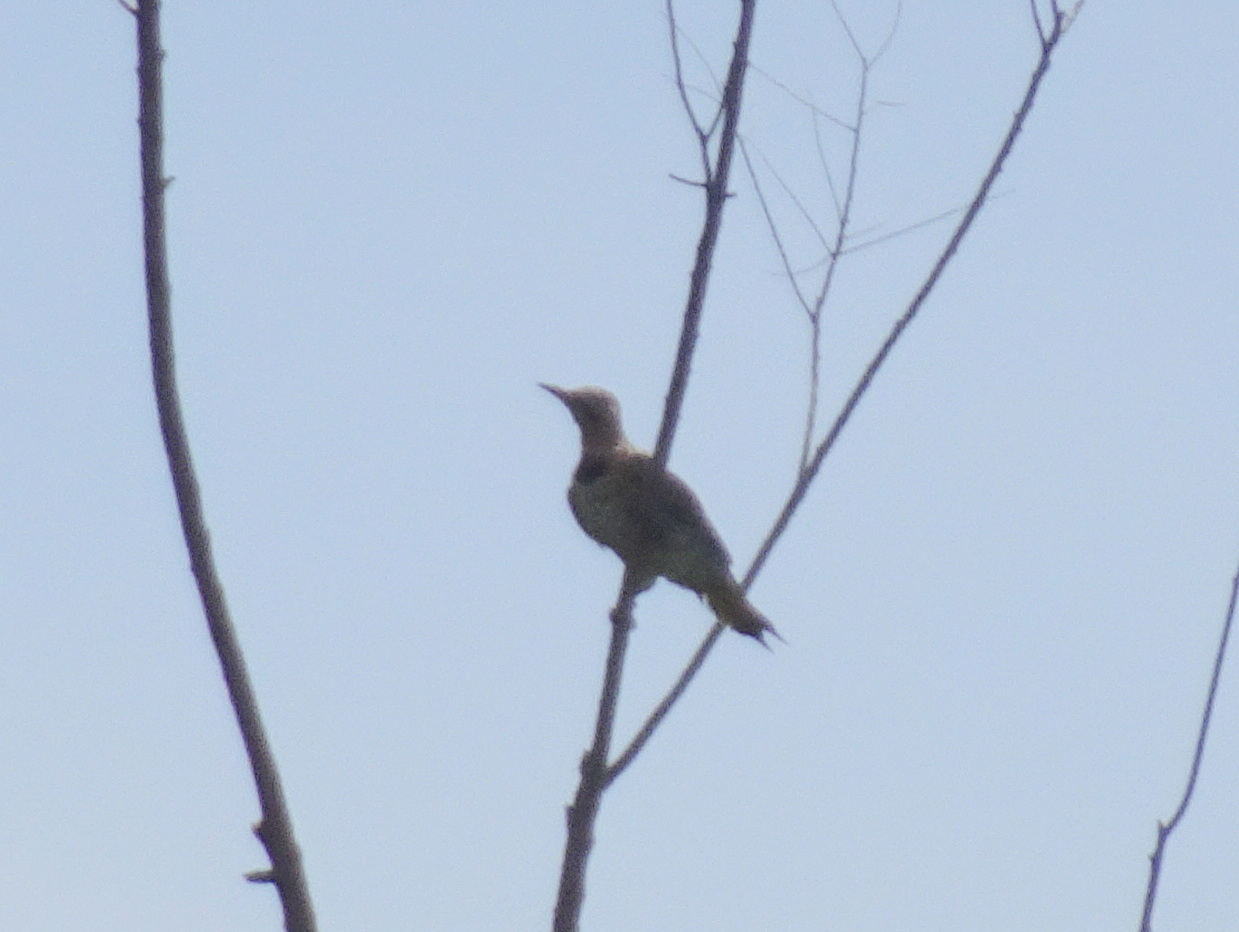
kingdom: Animalia
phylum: Chordata
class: Aves
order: Piciformes
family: Picidae
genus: Colaptes
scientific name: Colaptes auratus
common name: Northern flicker
